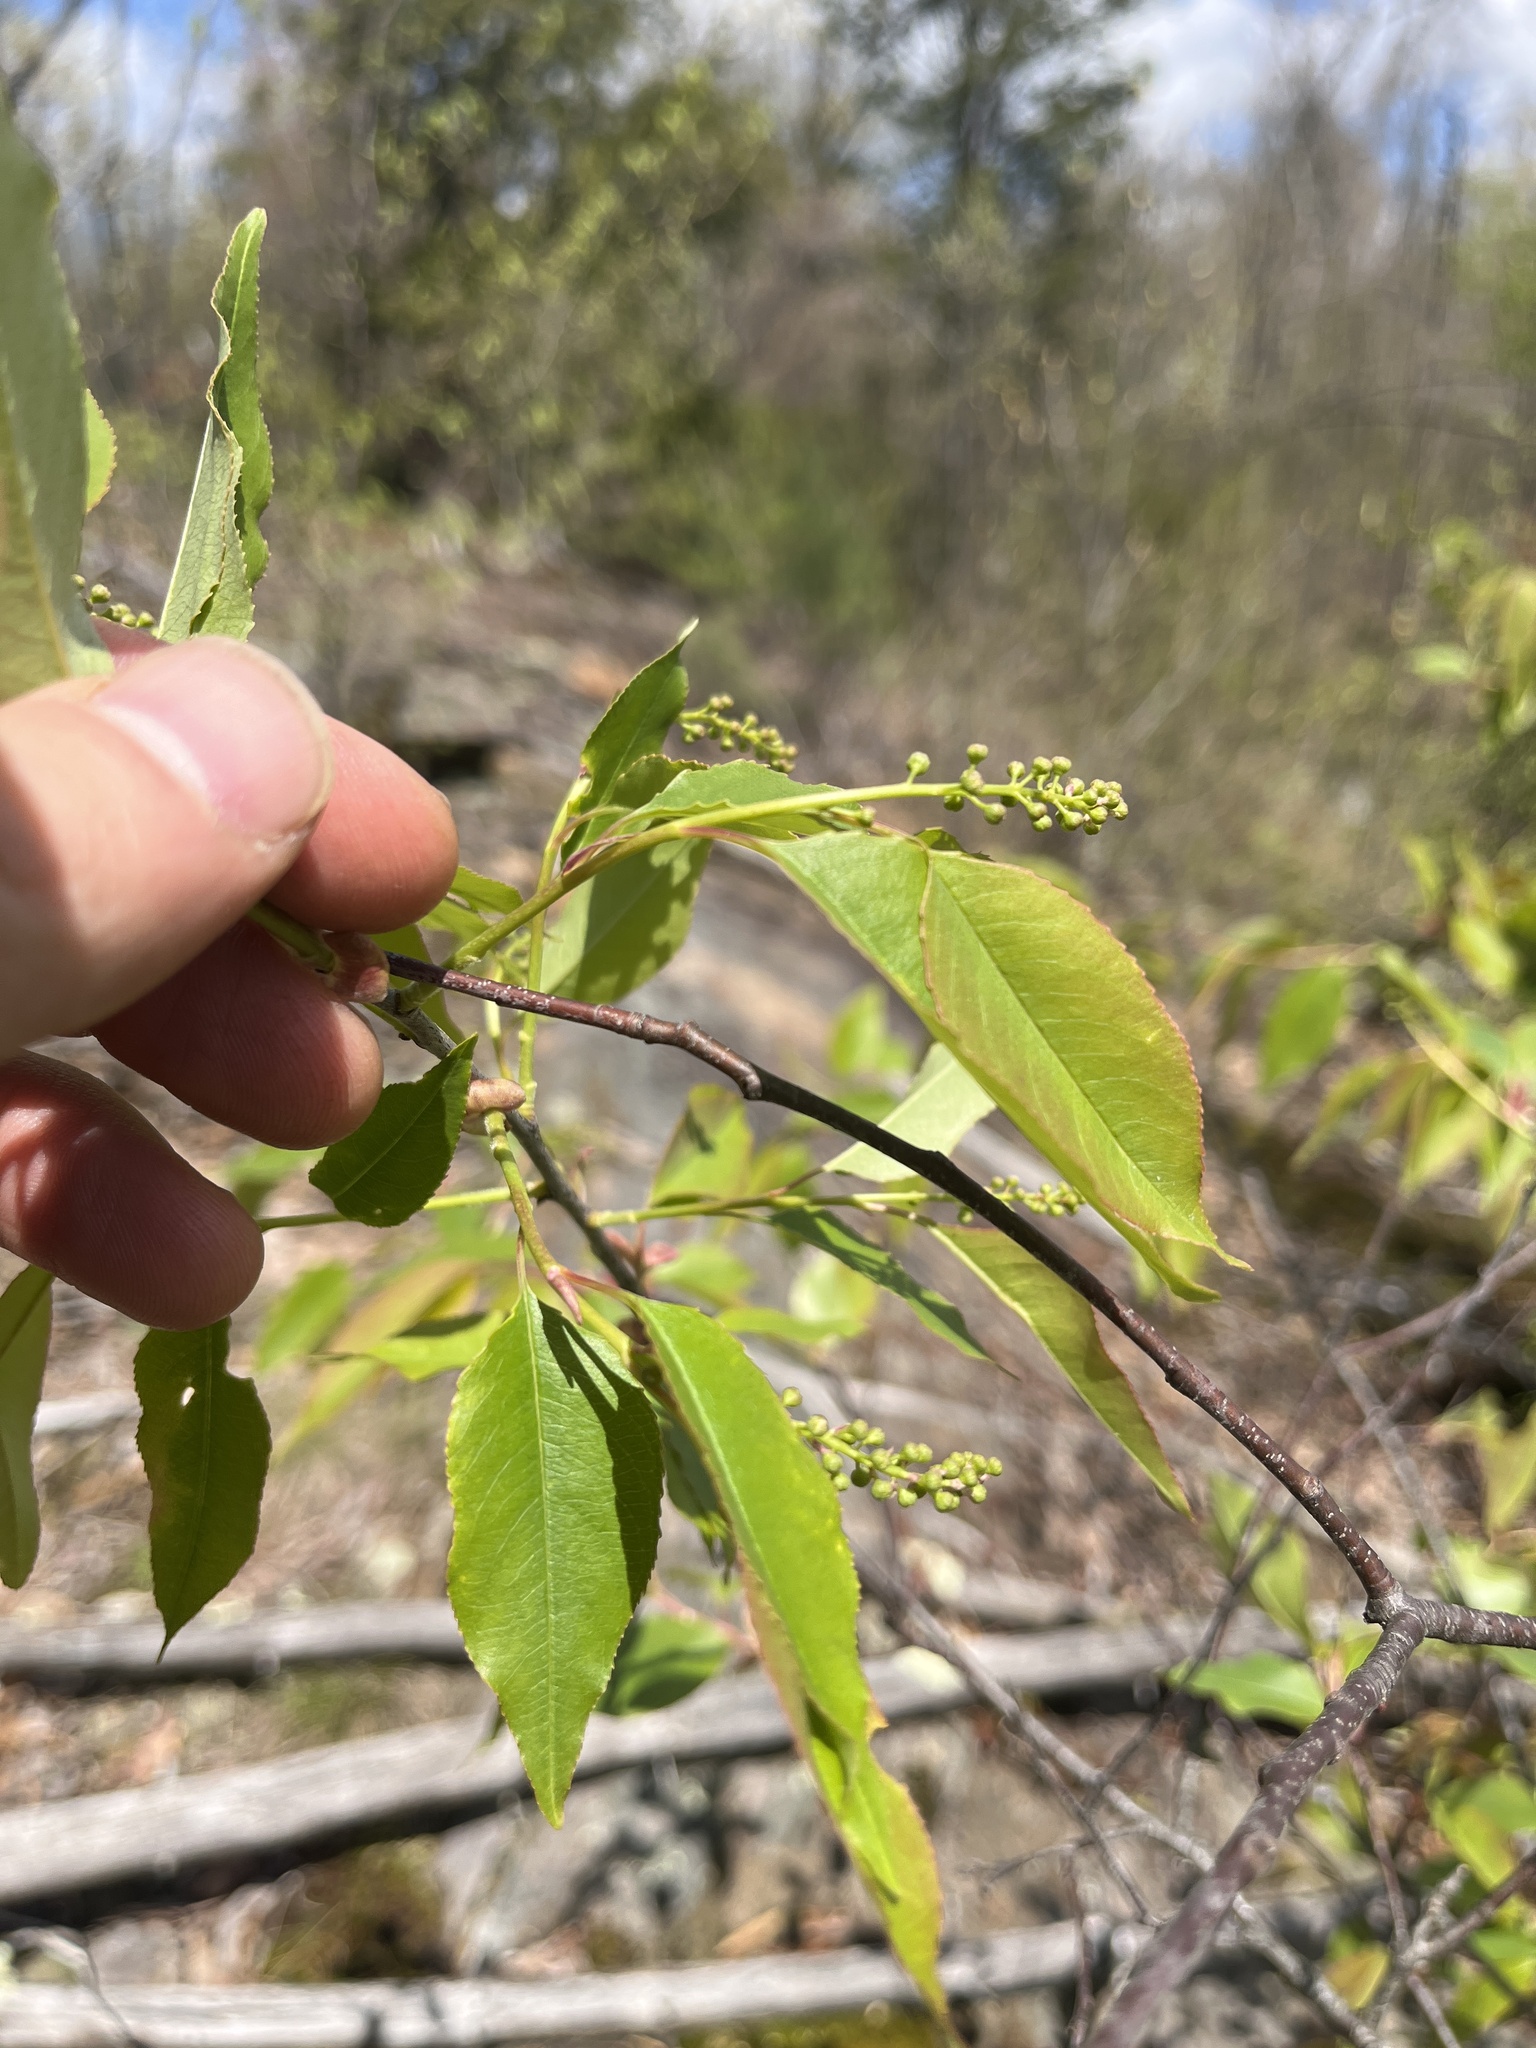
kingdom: Plantae
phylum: Tracheophyta
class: Magnoliopsida
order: Rosales
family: Rosaceae
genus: Prunus
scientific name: Prunus serotina
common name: Black cherry
